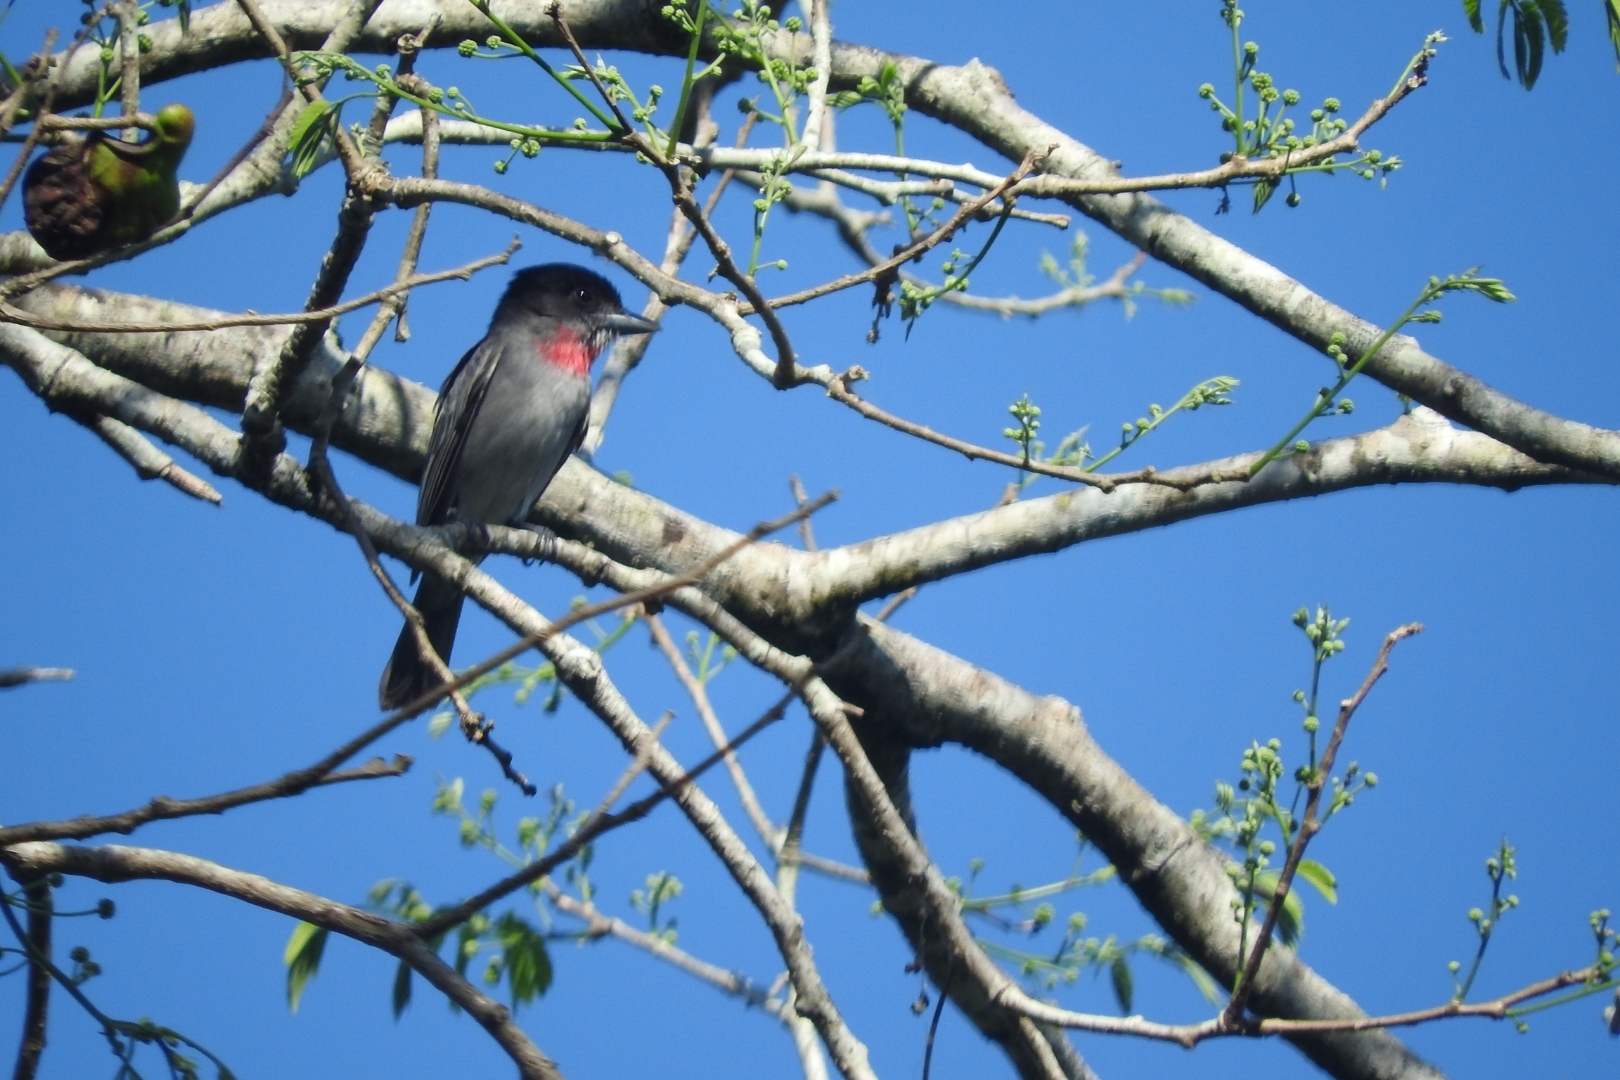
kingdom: Animalia
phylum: Chordata
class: Aves
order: Passeriformes
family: Cotingidae
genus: Pachyramphus
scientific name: Pachyramphus aglaiae
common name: Rose-throated becard
